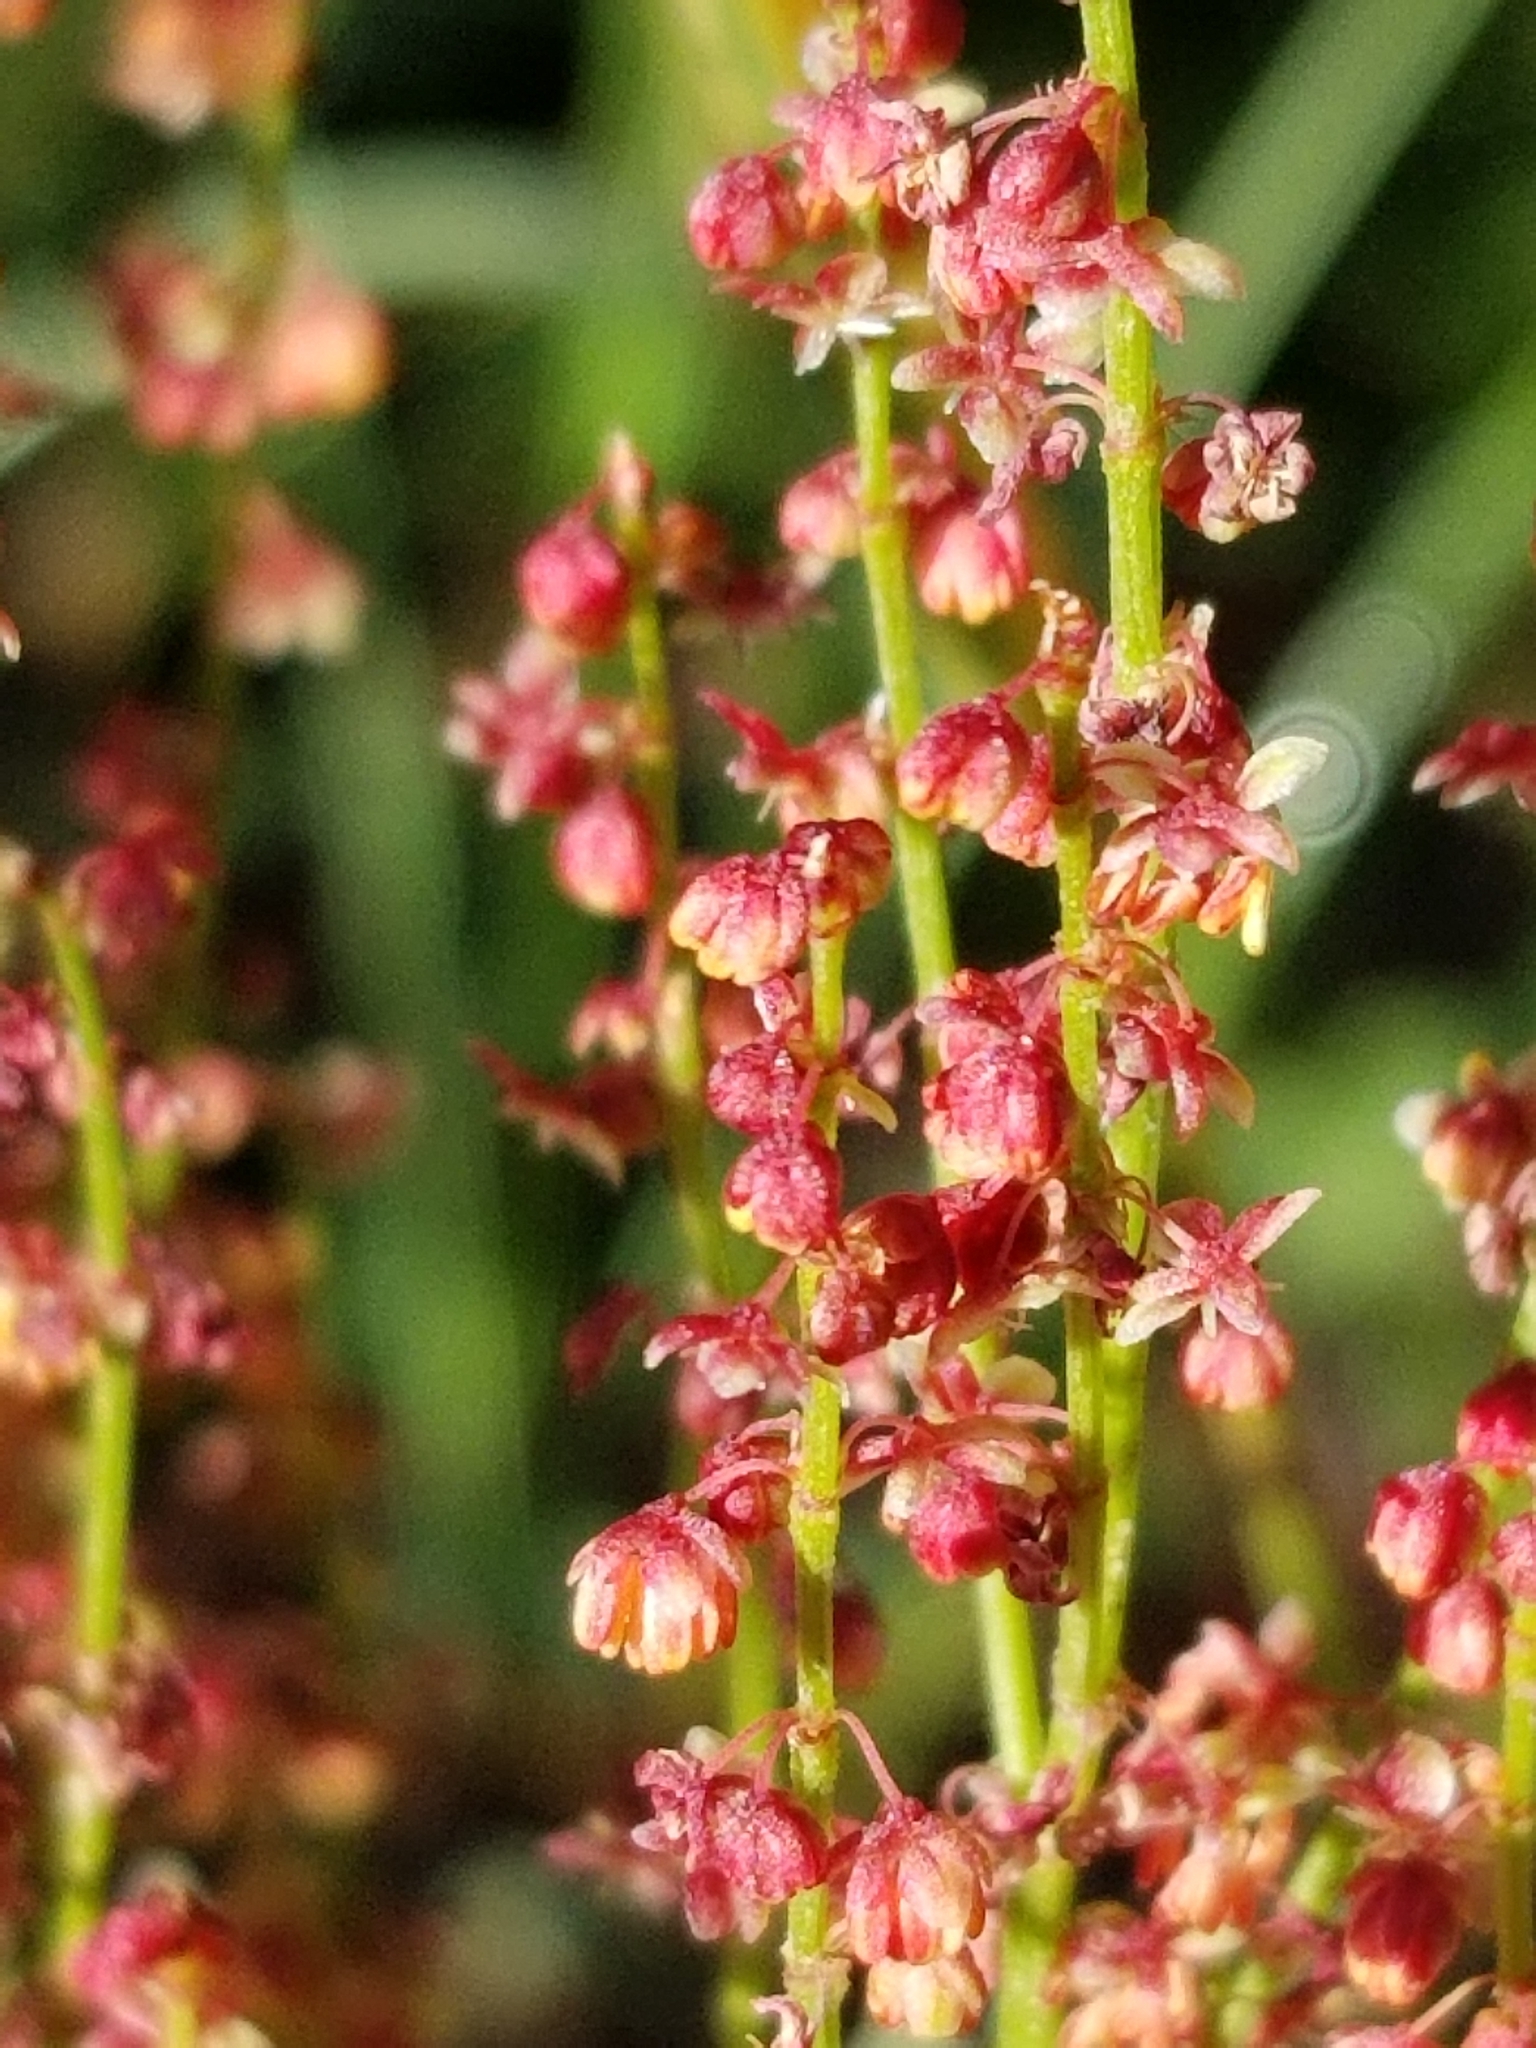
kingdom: Plantae
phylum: Tracheophyta
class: Magnoliopsida
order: Caryophyllales
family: Polygonaceae
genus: Rumex
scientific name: Rumex acetosella
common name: Common sheep sorrel
